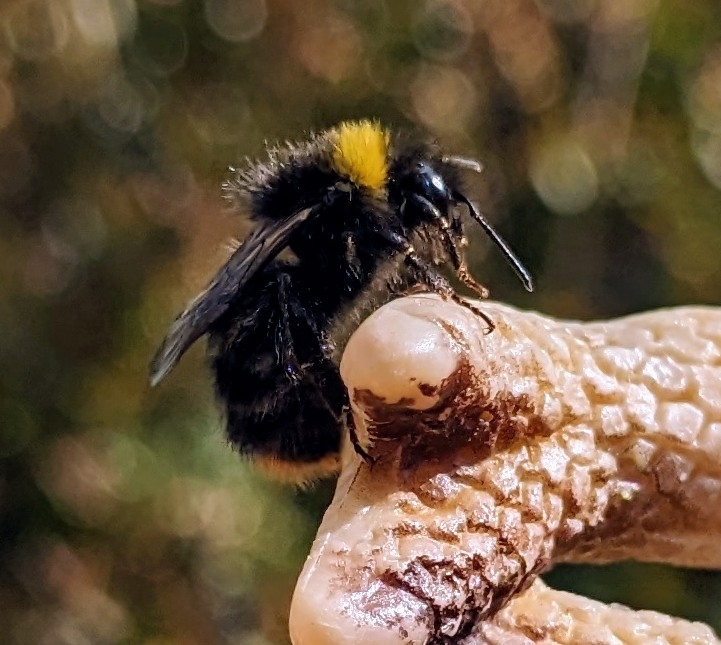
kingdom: Animalia
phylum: Arthropoda
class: Insecta
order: Hymenoptera
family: Apidae
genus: Bombus
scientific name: Bombus pratorum
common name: Early humble-bee
